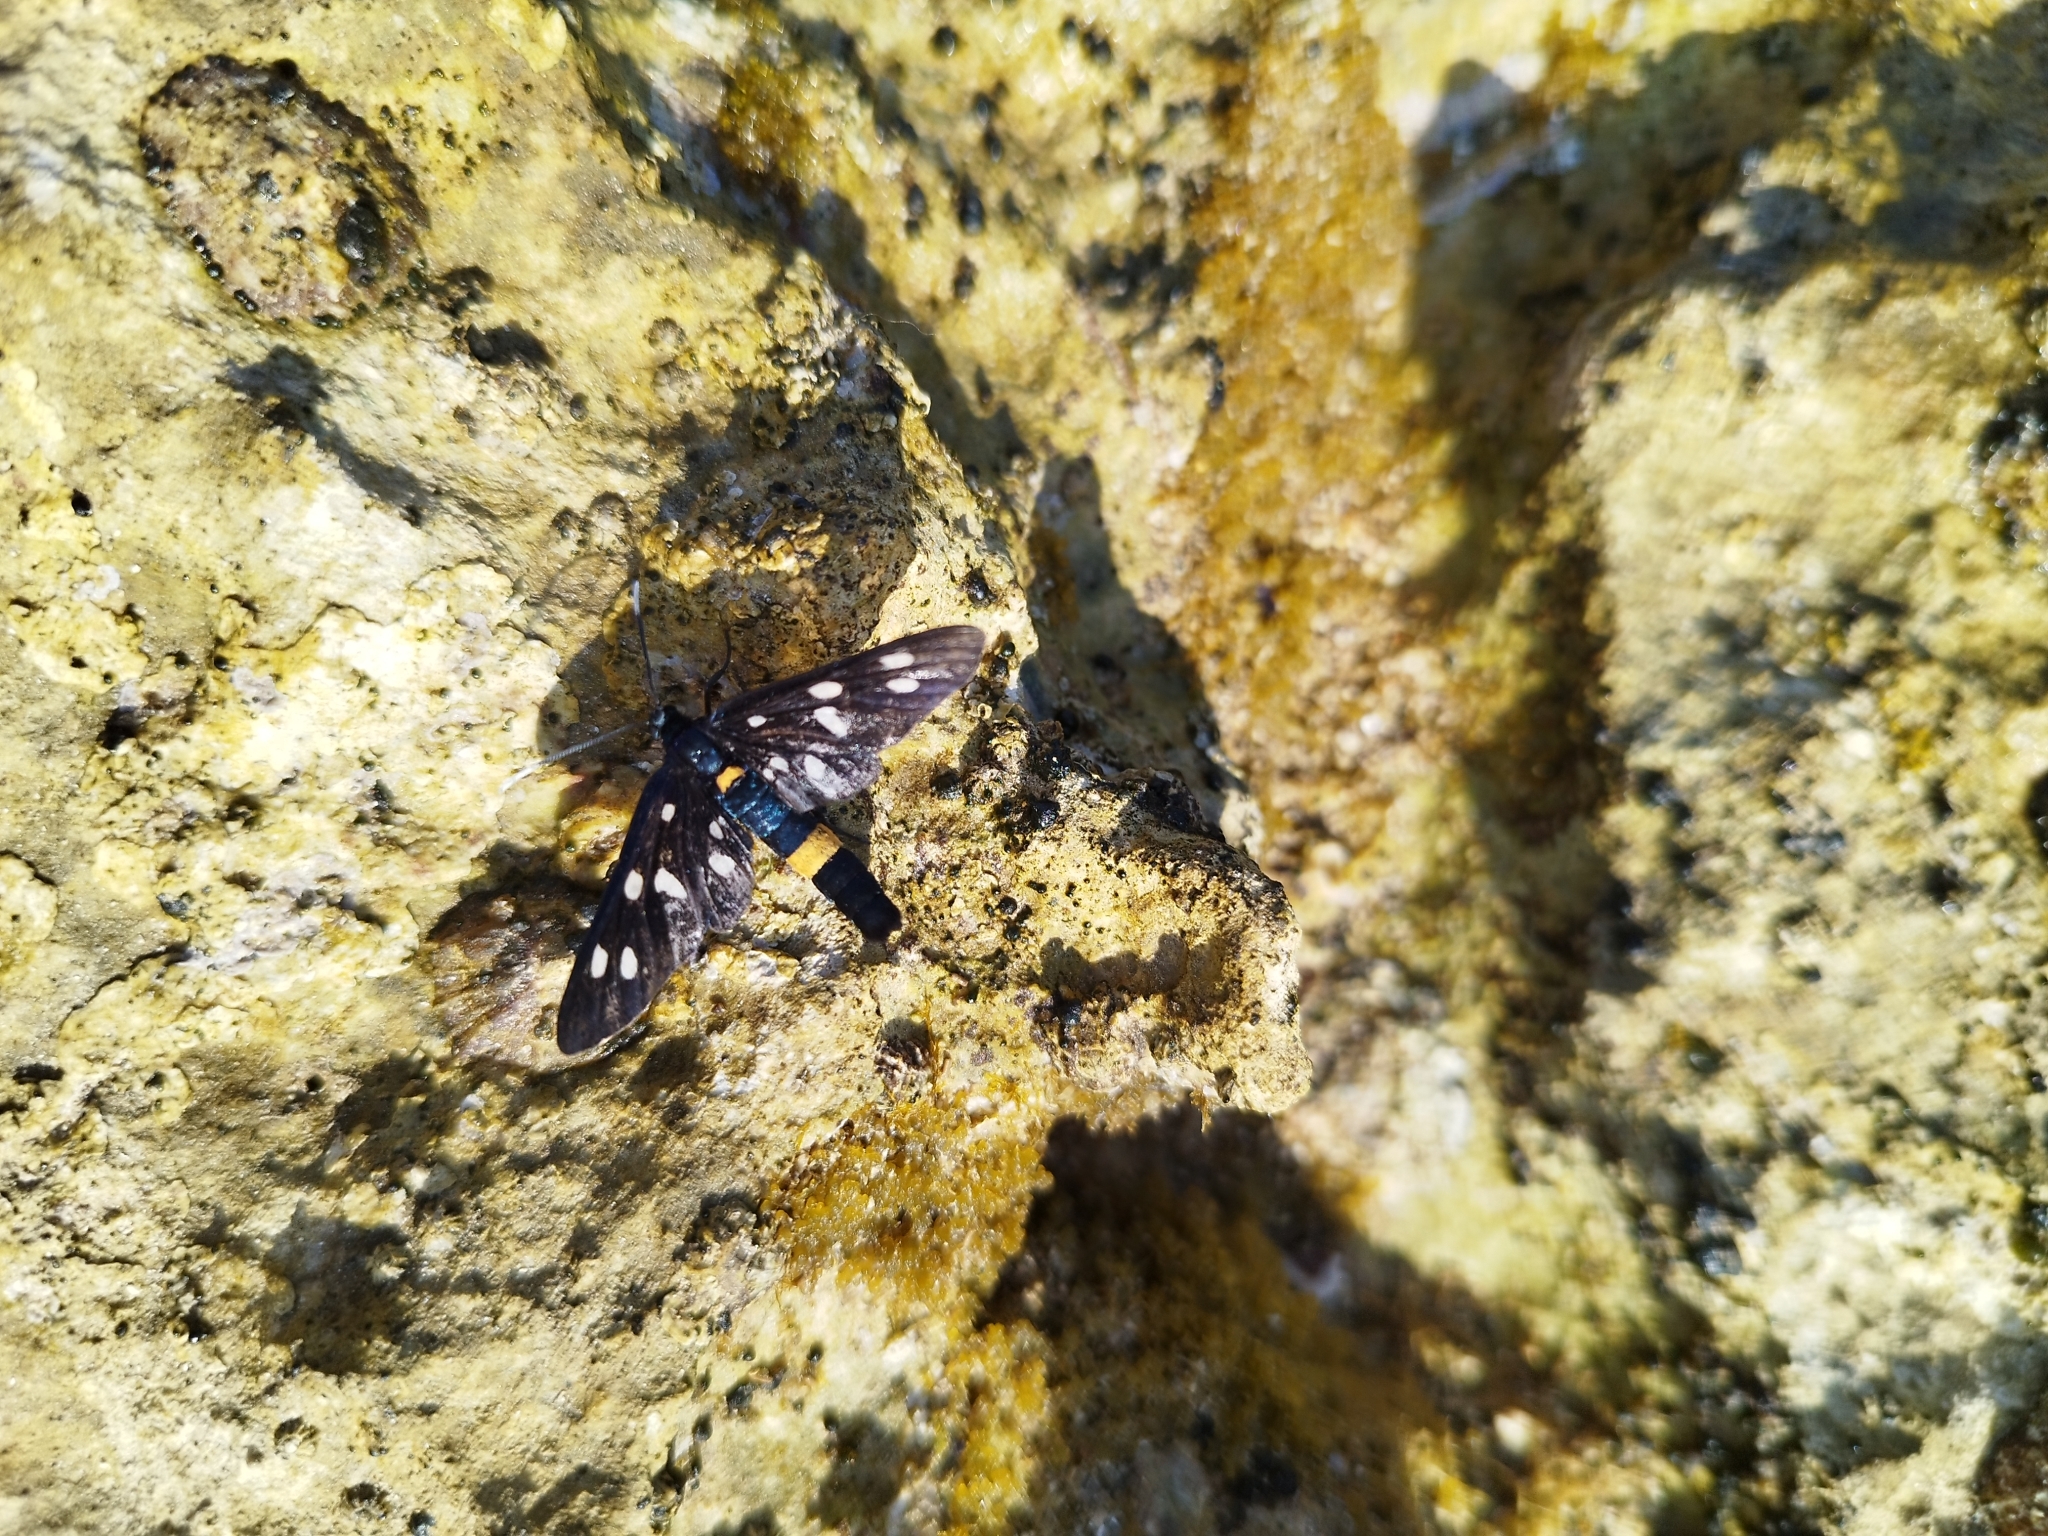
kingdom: Animalia
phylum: Arthropoda
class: Insecta
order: Lepidoptera
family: Erebidae
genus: Amata
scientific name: Amata phegea
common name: Nine-spotted
